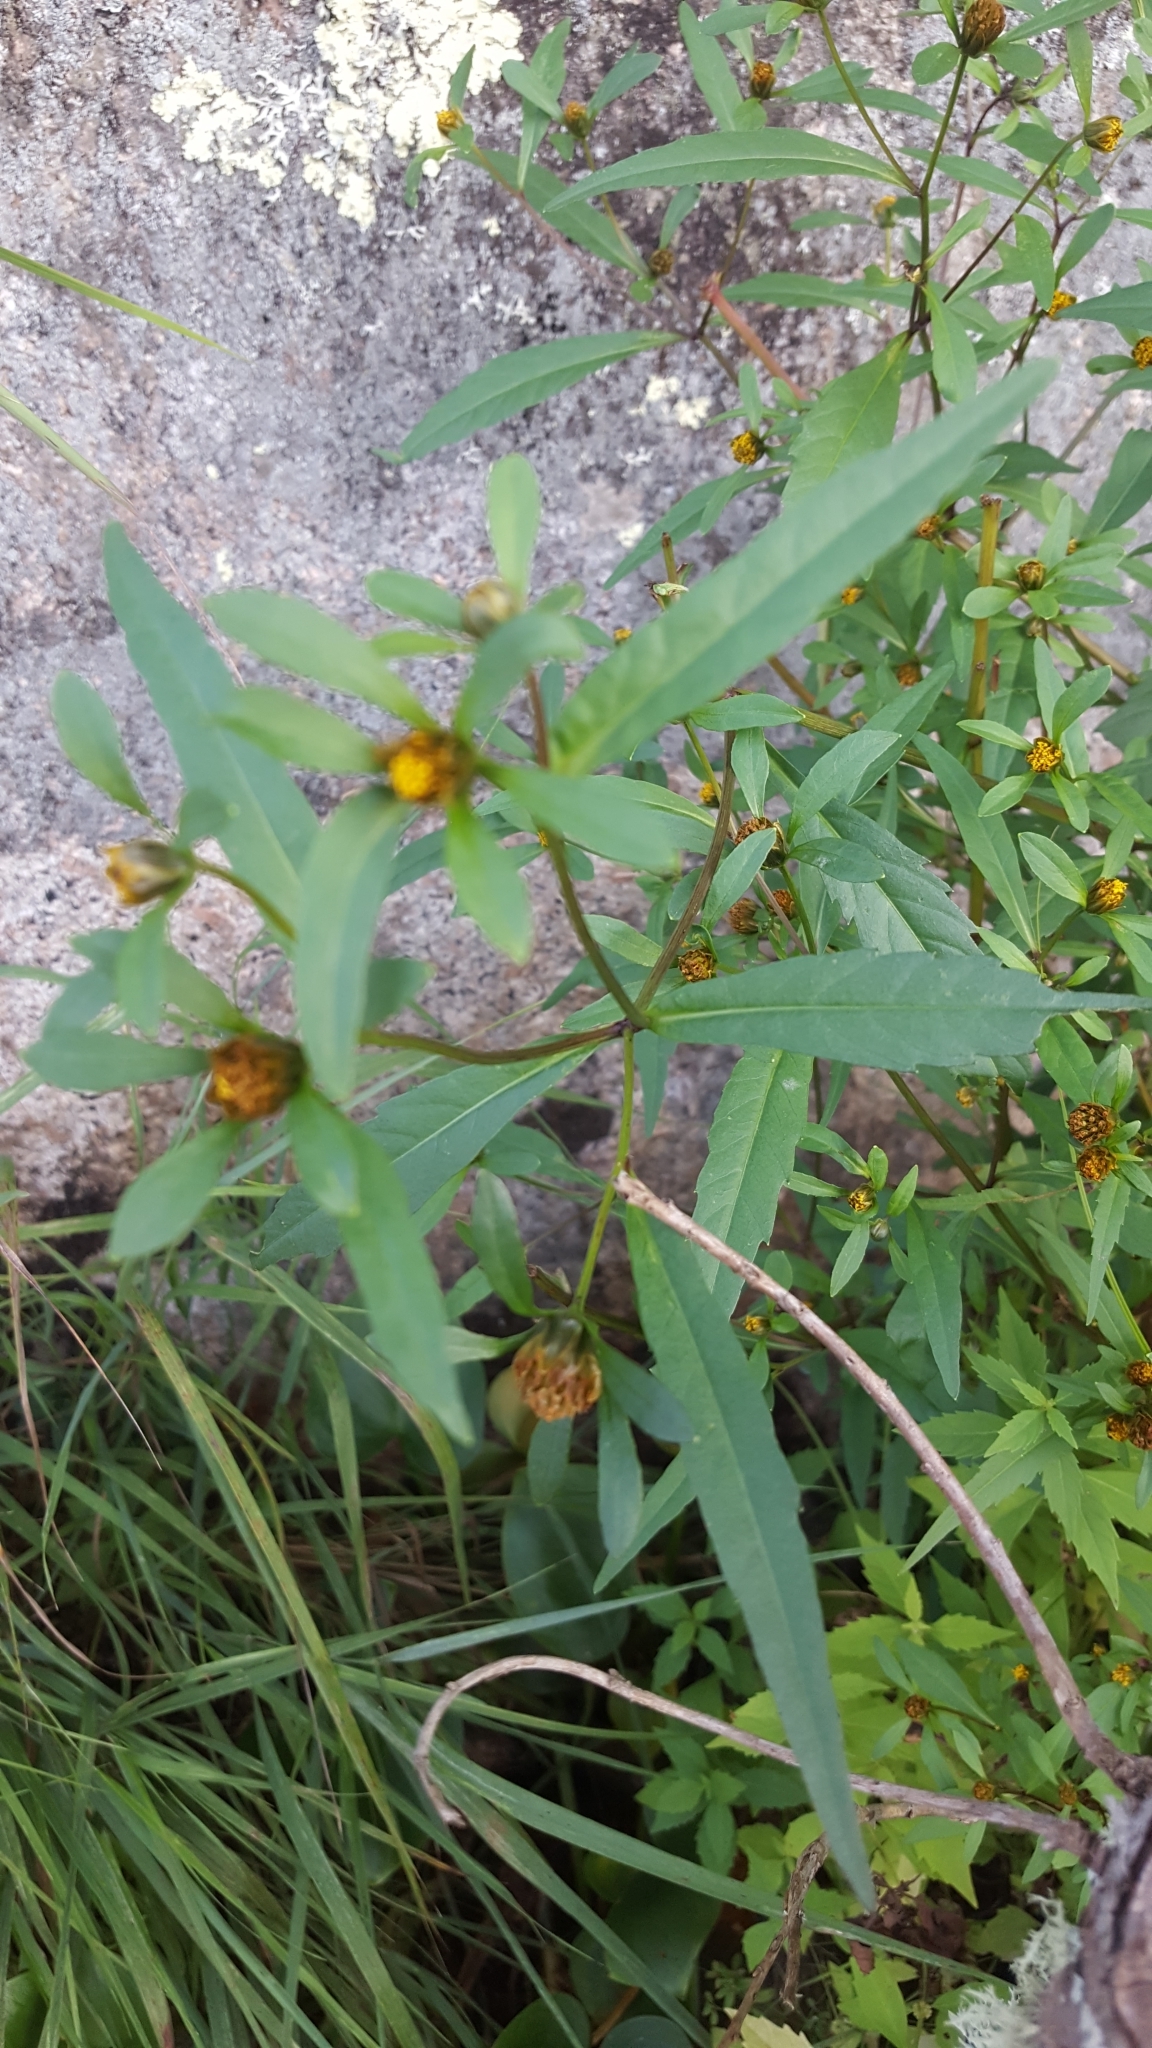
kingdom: Plantae
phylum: Tracheophyta
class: Magnoliopsida
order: Asterales
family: Asteraceae
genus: Bidens
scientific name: Bidens connata
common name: London bur-marigold
